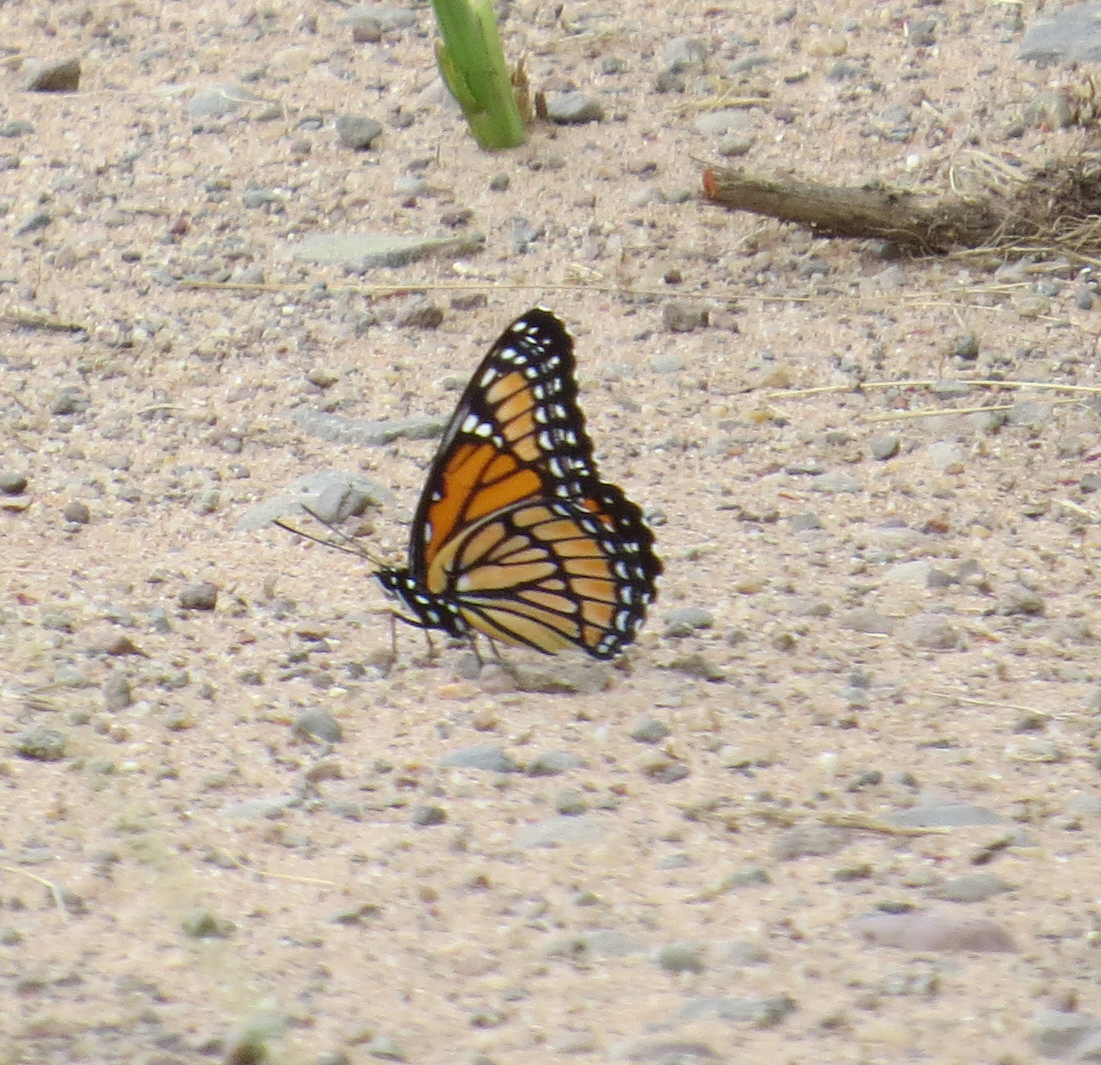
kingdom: Animalia
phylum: Arthropoda
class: Insecta
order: Lepidoptera
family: Nymphalidae
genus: Limenitis
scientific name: Limenitis archippus
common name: Viceroy
